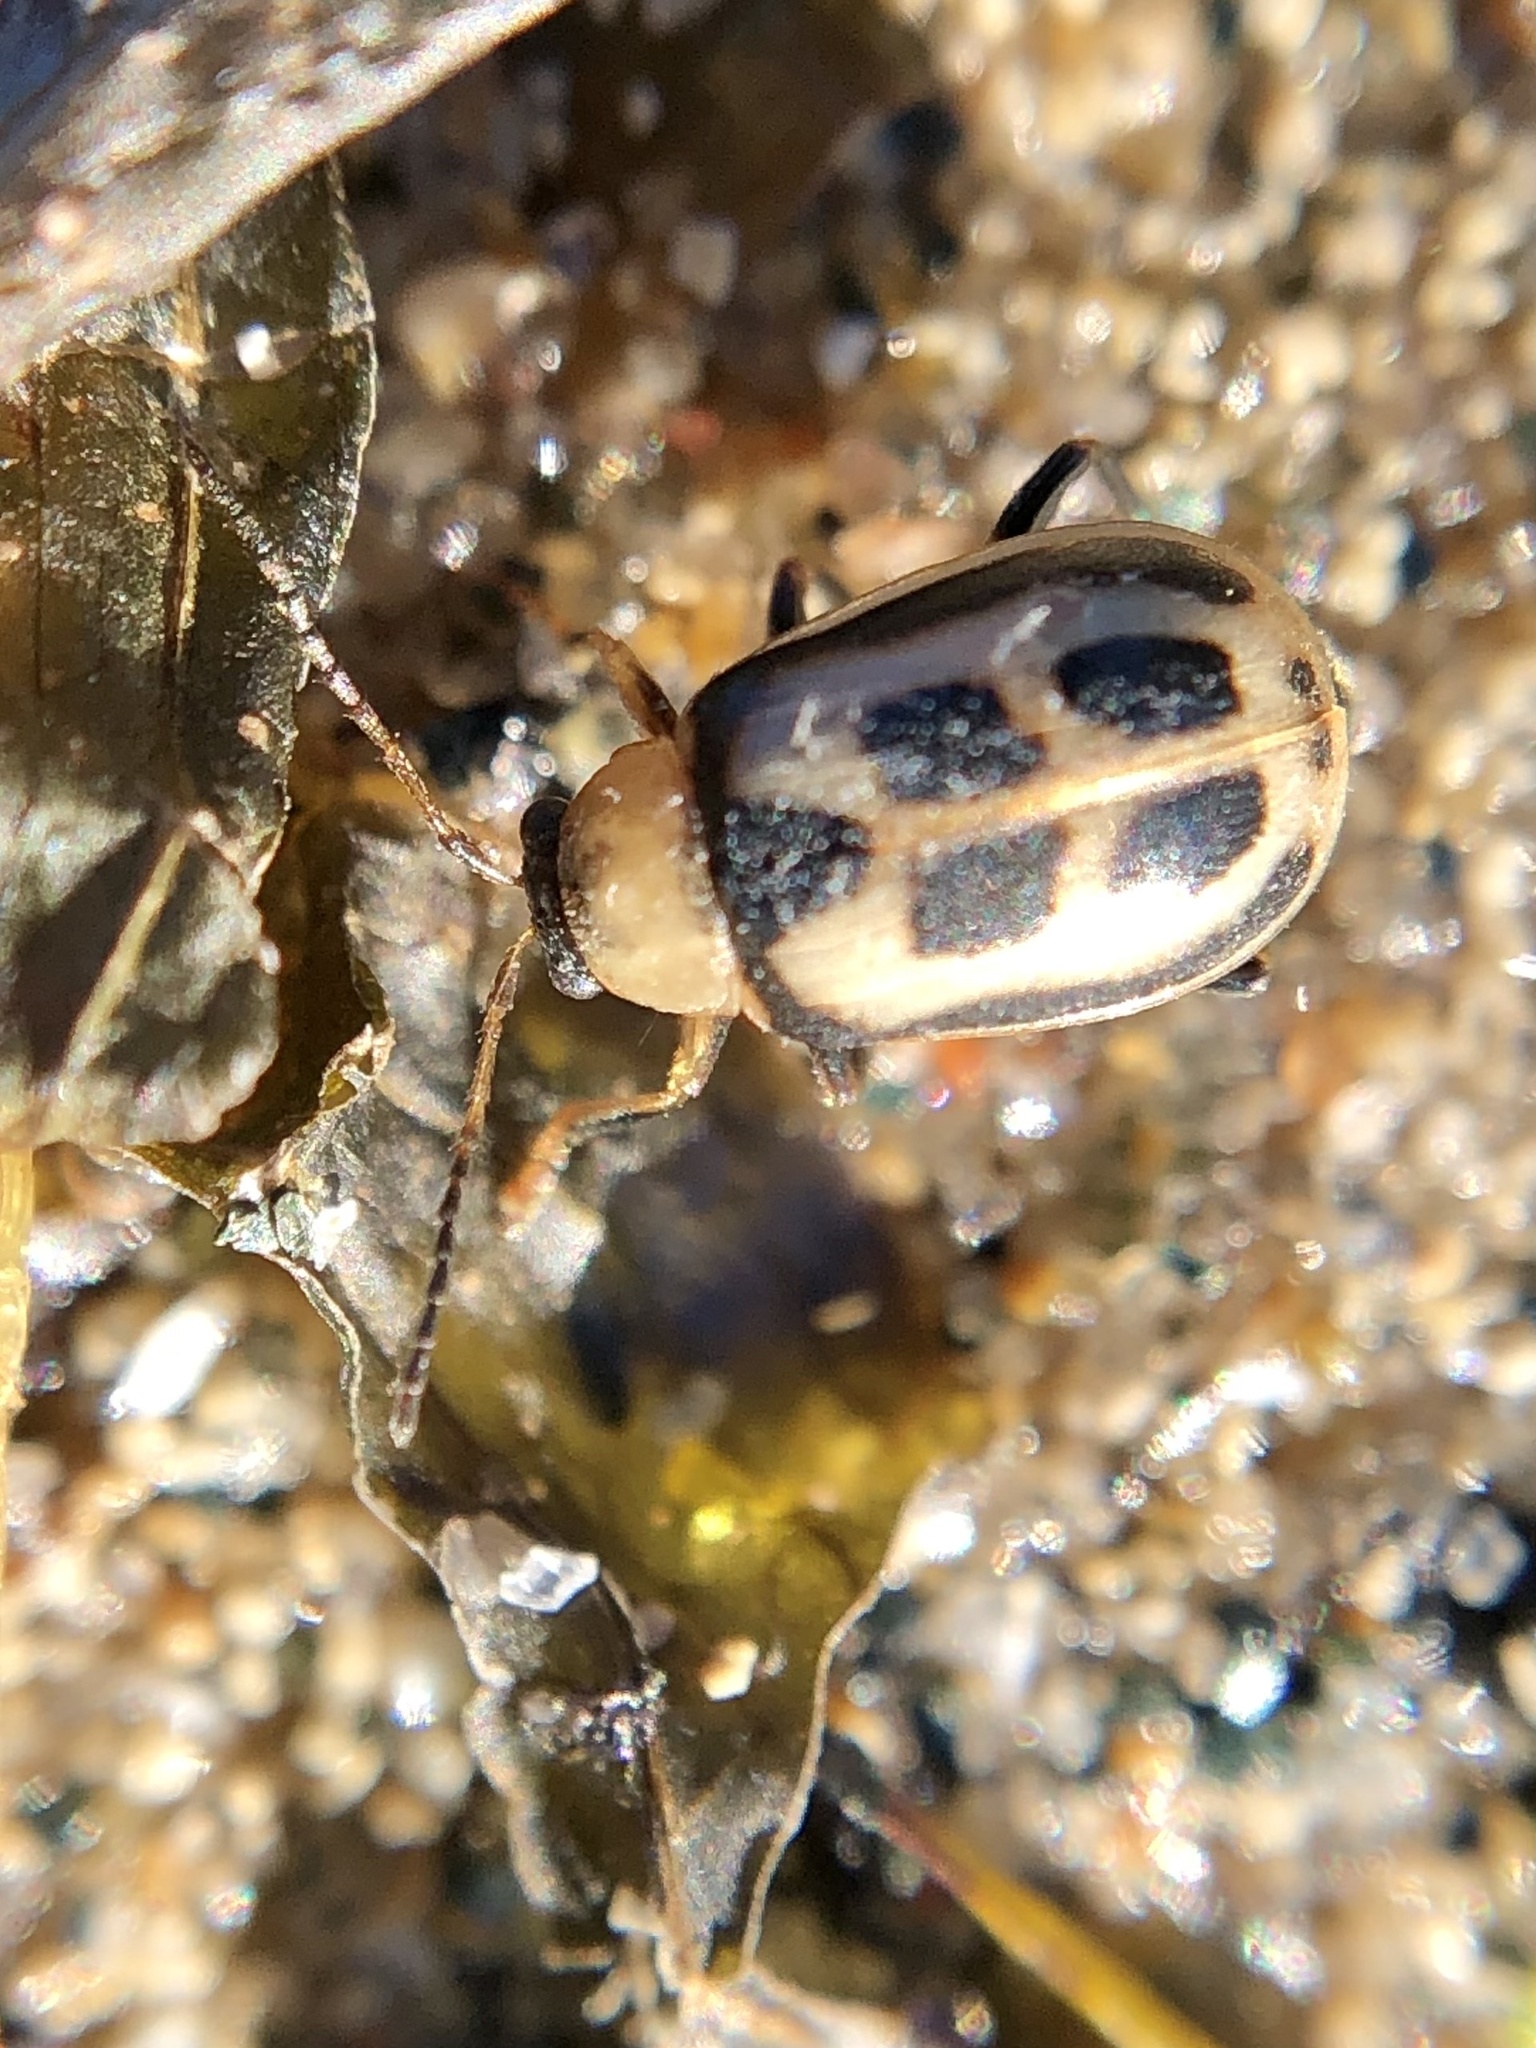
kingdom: Animalia
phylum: Arthropoda
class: Insecta
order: Coleoptera
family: Chrysomelidae
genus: Cerotoma
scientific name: Cerotoma trifurcata
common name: Bean leaf beetle
